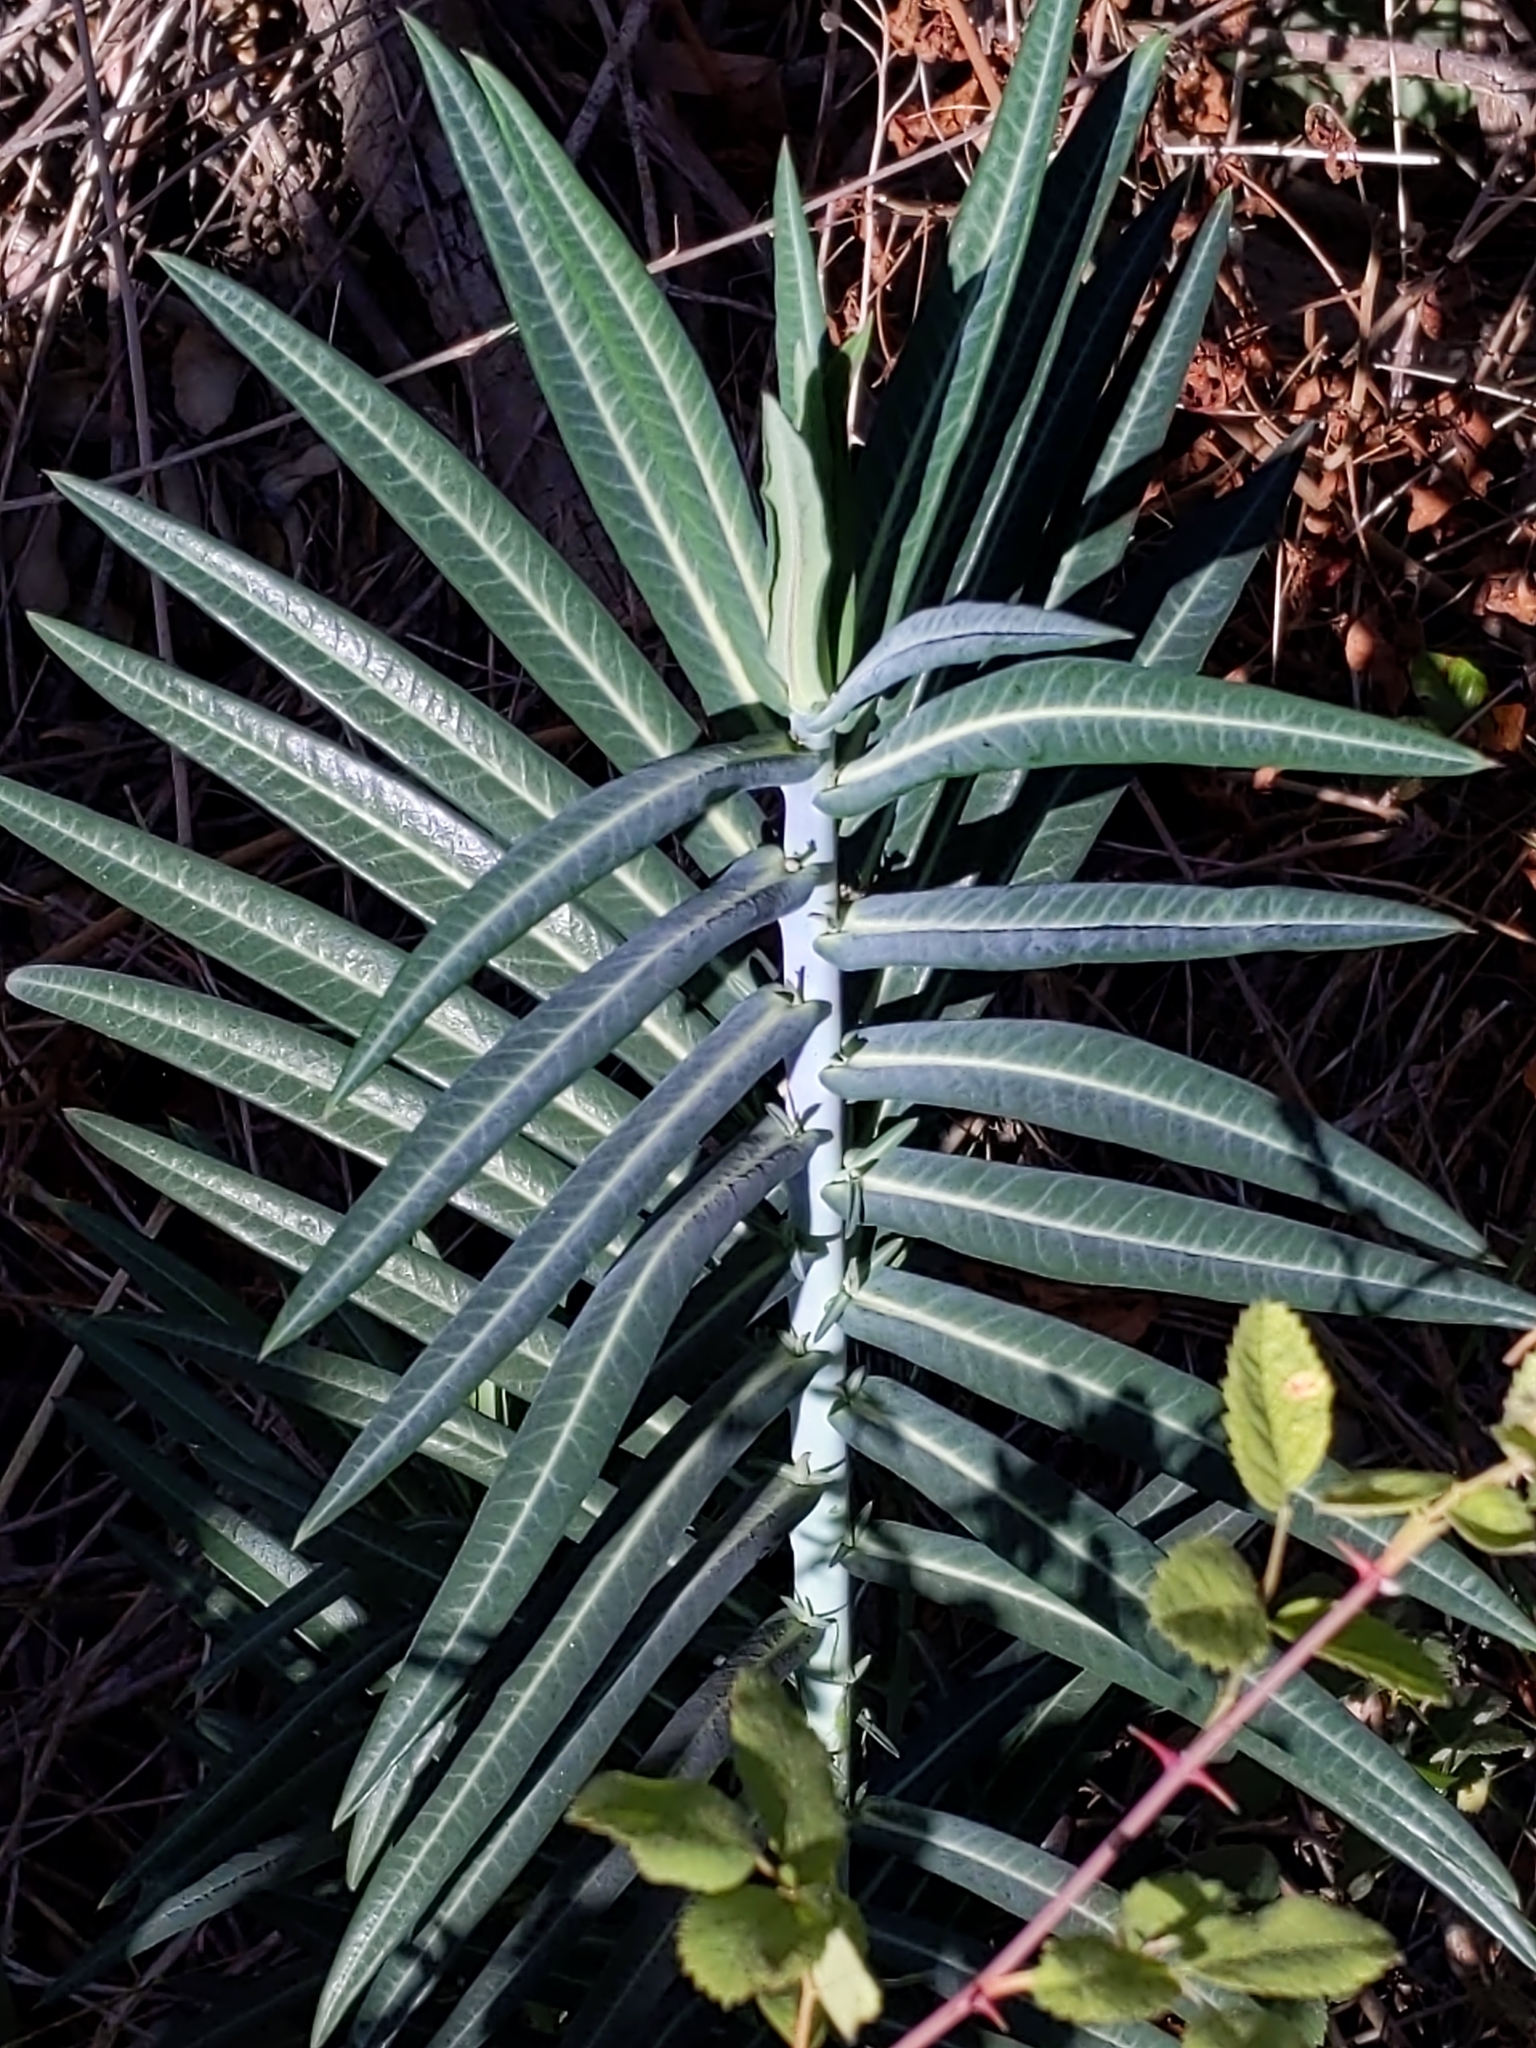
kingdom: Plantae
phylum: Tracheophyta
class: Magnoliopsida
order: Malpighiales
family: Euphorbiaceae
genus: Euphorbia
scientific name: Euphorbia lathyris
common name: Caper spurge
